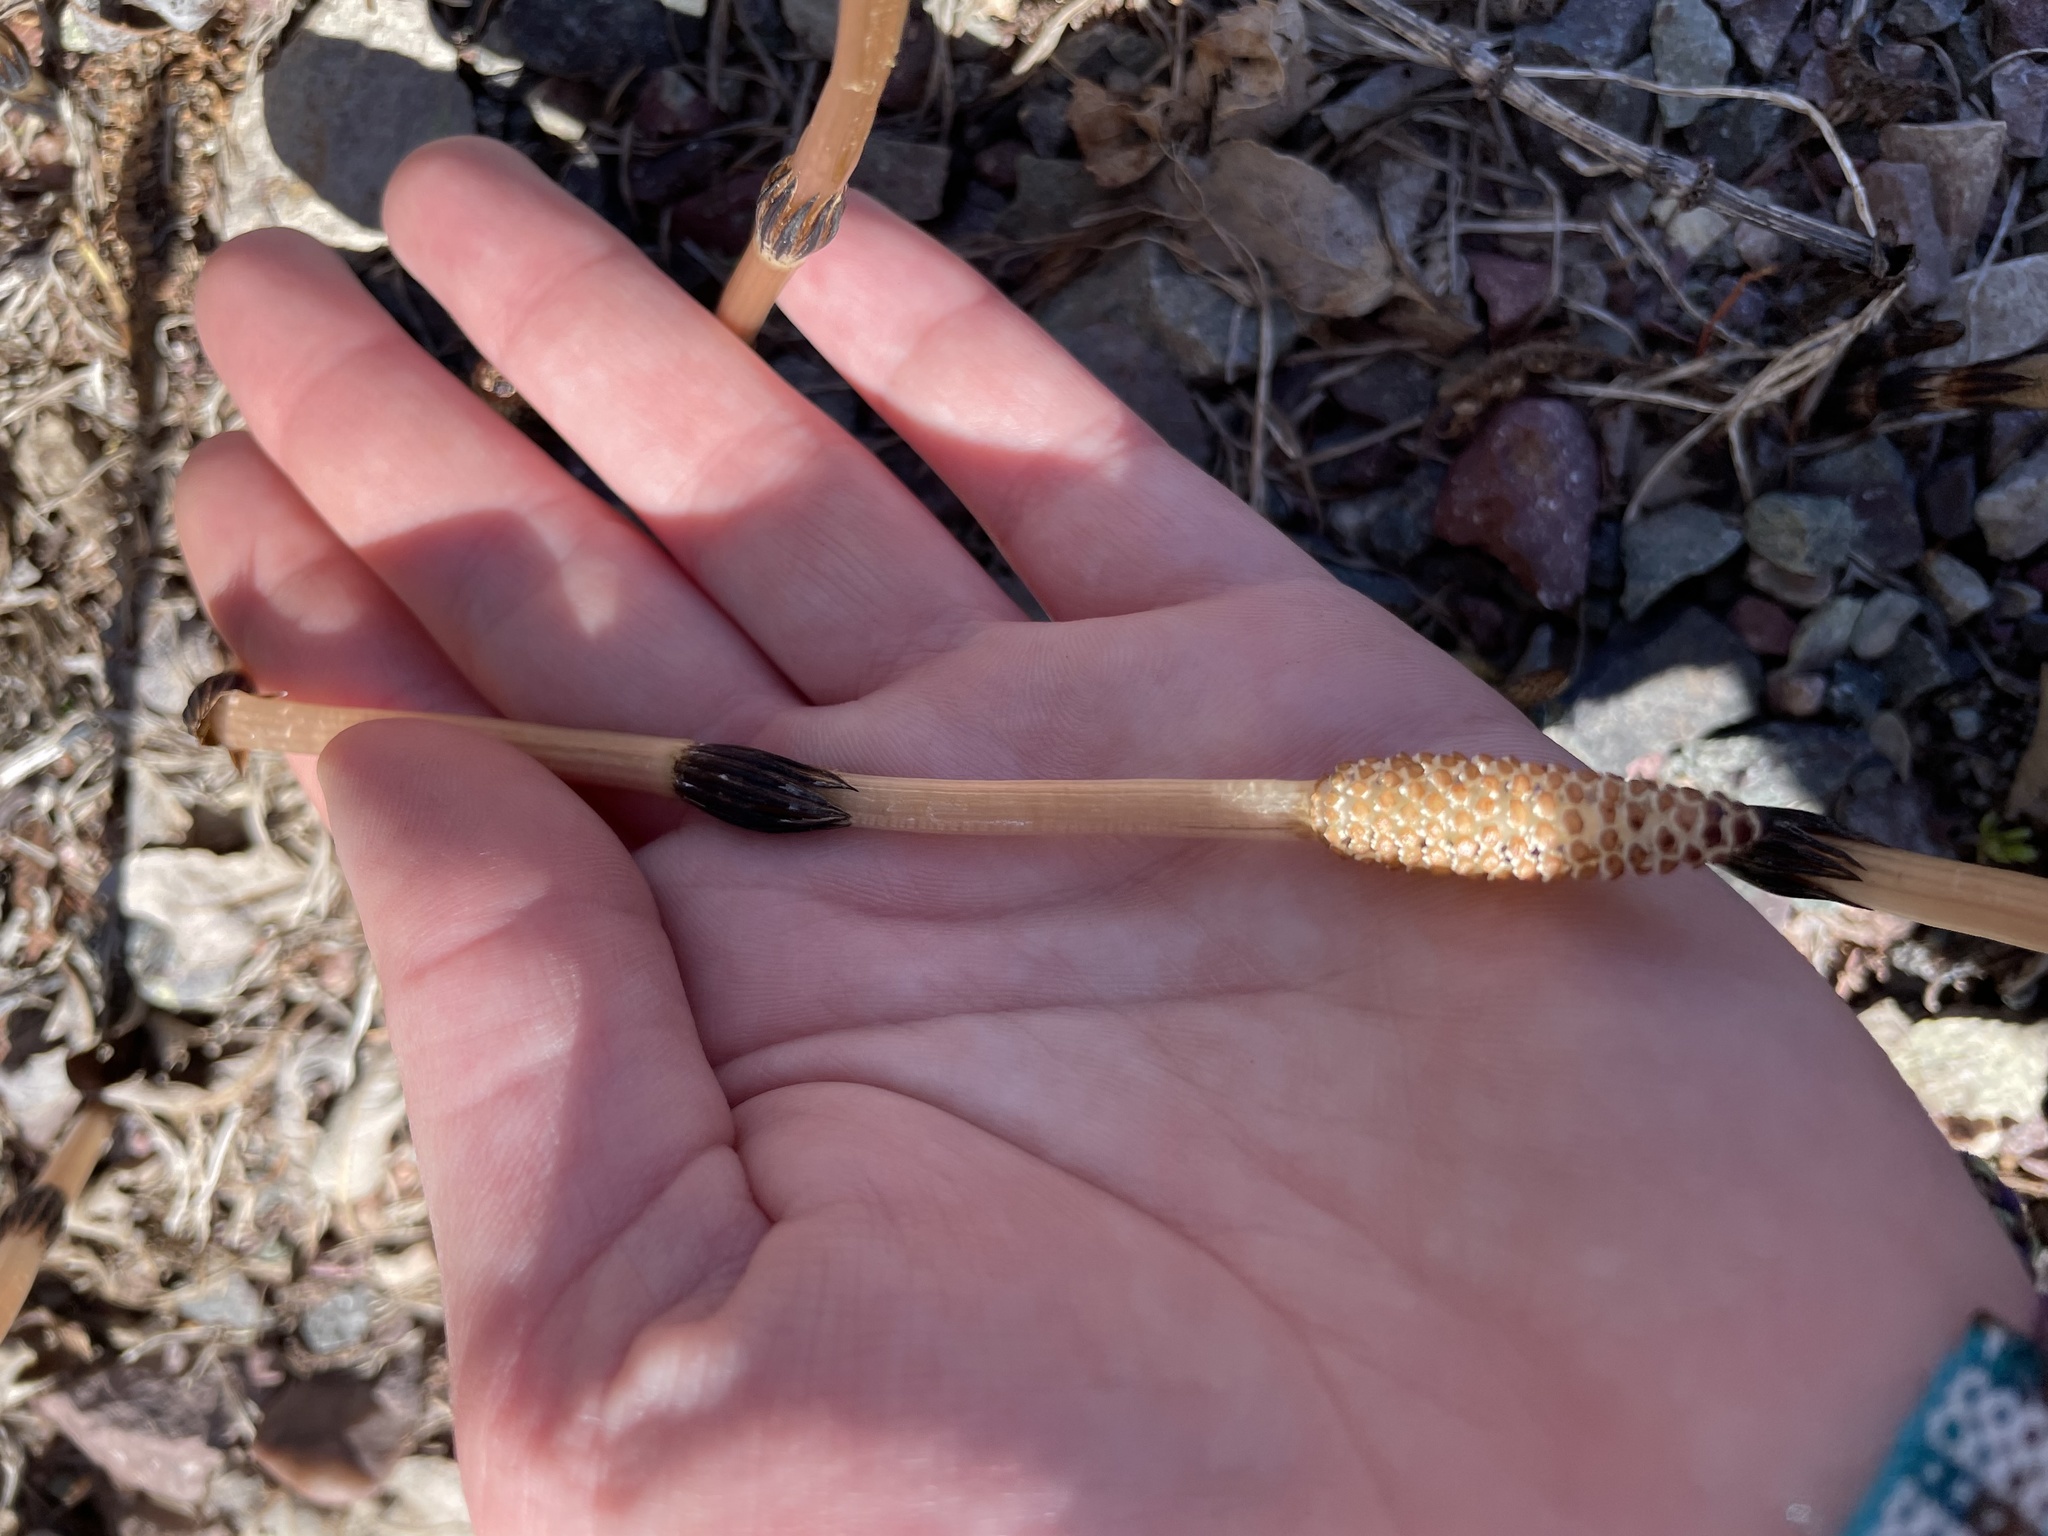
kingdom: Plantae
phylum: Tracheophyta
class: Polypodiopsida
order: Equisetales
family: Equisetaceae
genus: Equisetum
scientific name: Equisetum arvense
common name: Field horsetail
